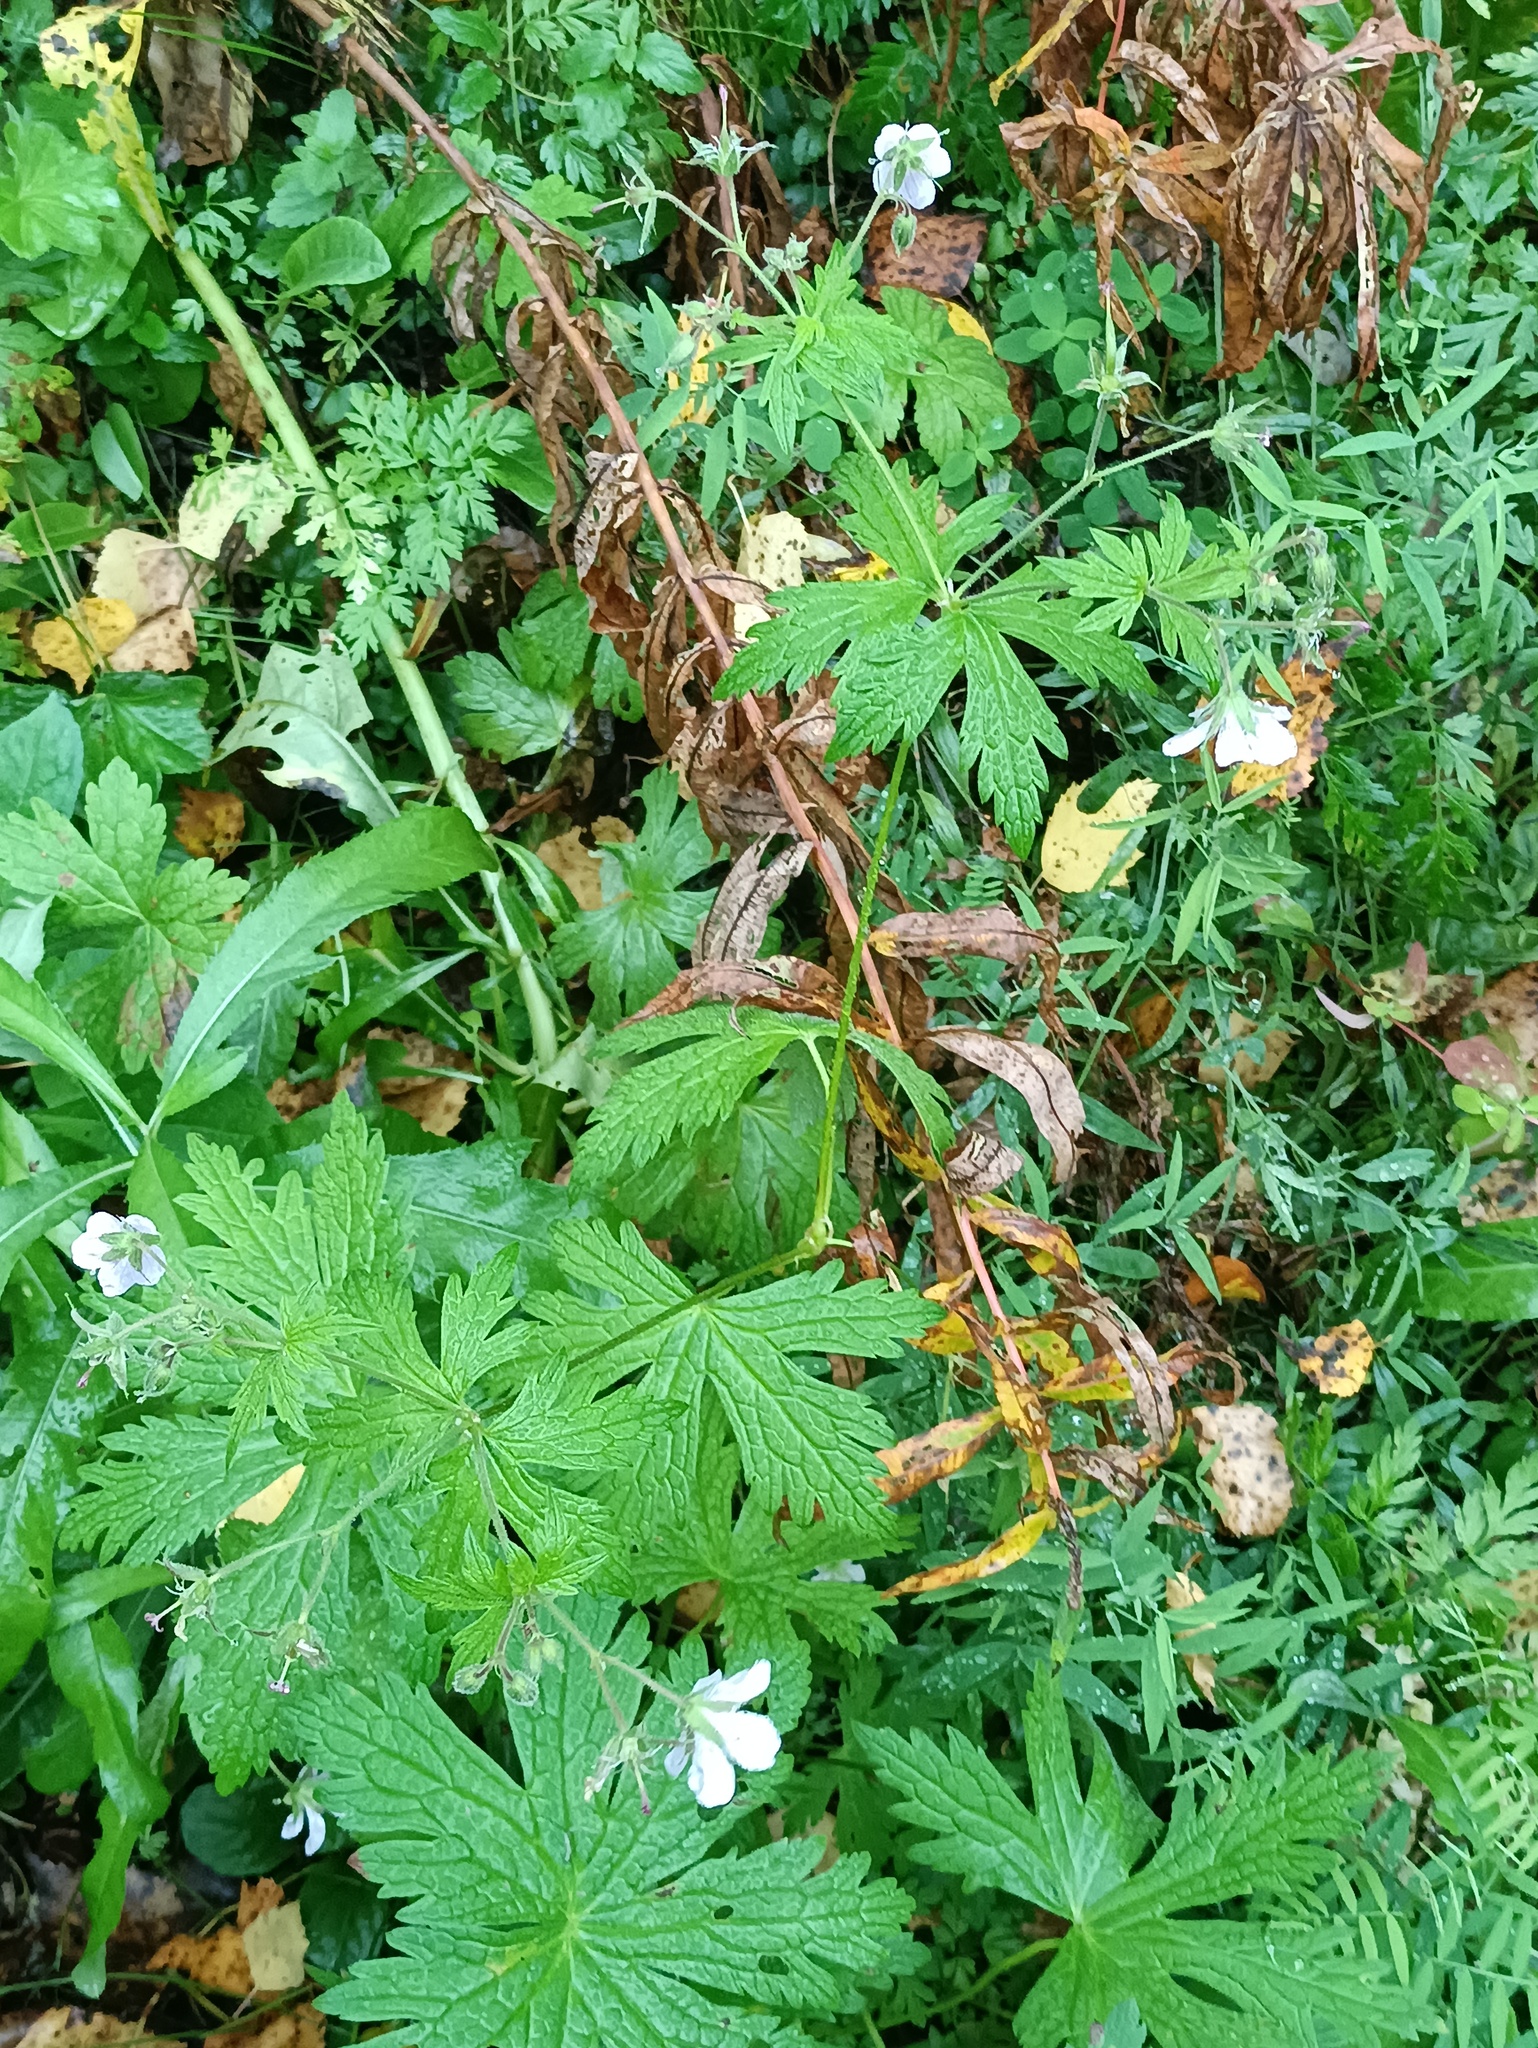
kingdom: Plantae
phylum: Tracheophyta
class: Magnoliopsida
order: Geraniales
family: Geraniaceae
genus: Geranium
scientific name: Geranium sylvaticum
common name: Wood crane's-bill
